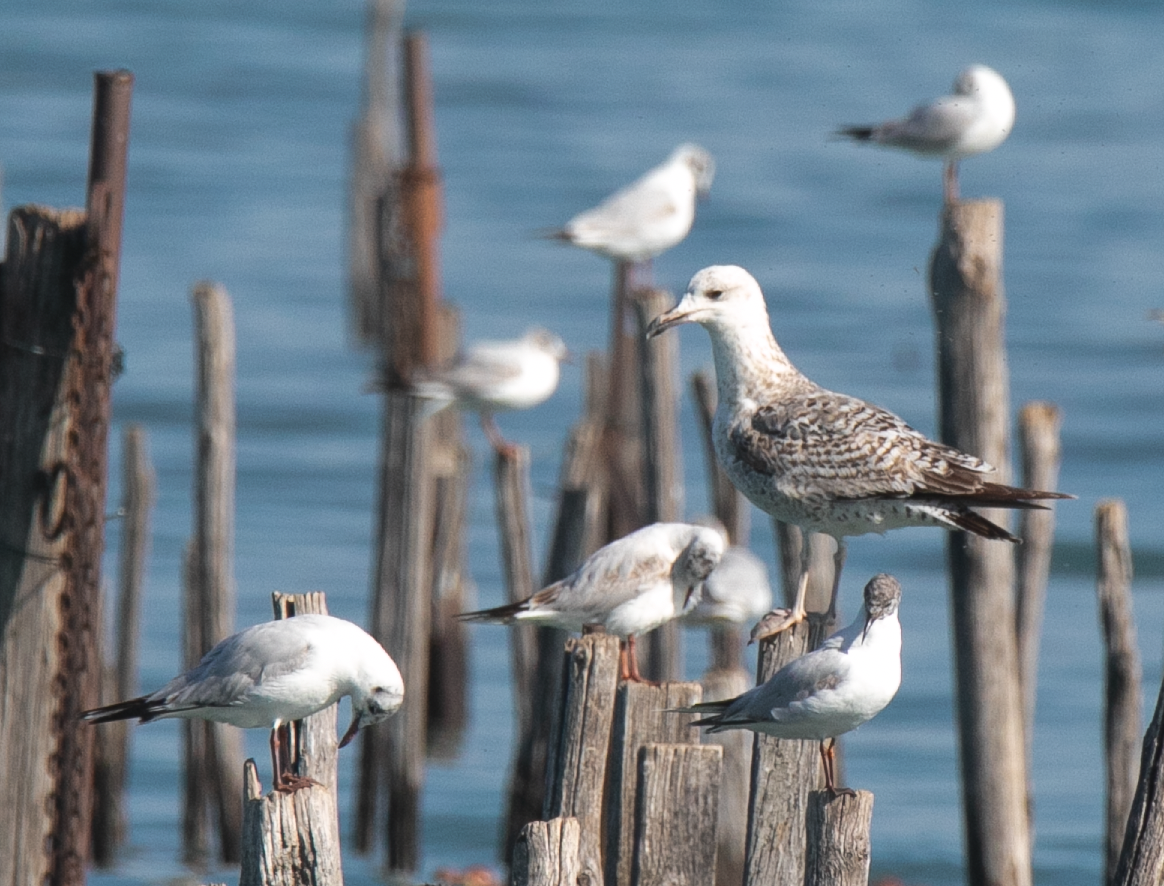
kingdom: Animalia
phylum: Chordata
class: Aves
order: Charadriiformes
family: Laridae
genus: Larus
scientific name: Larus cachinnans
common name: Caspian gull
